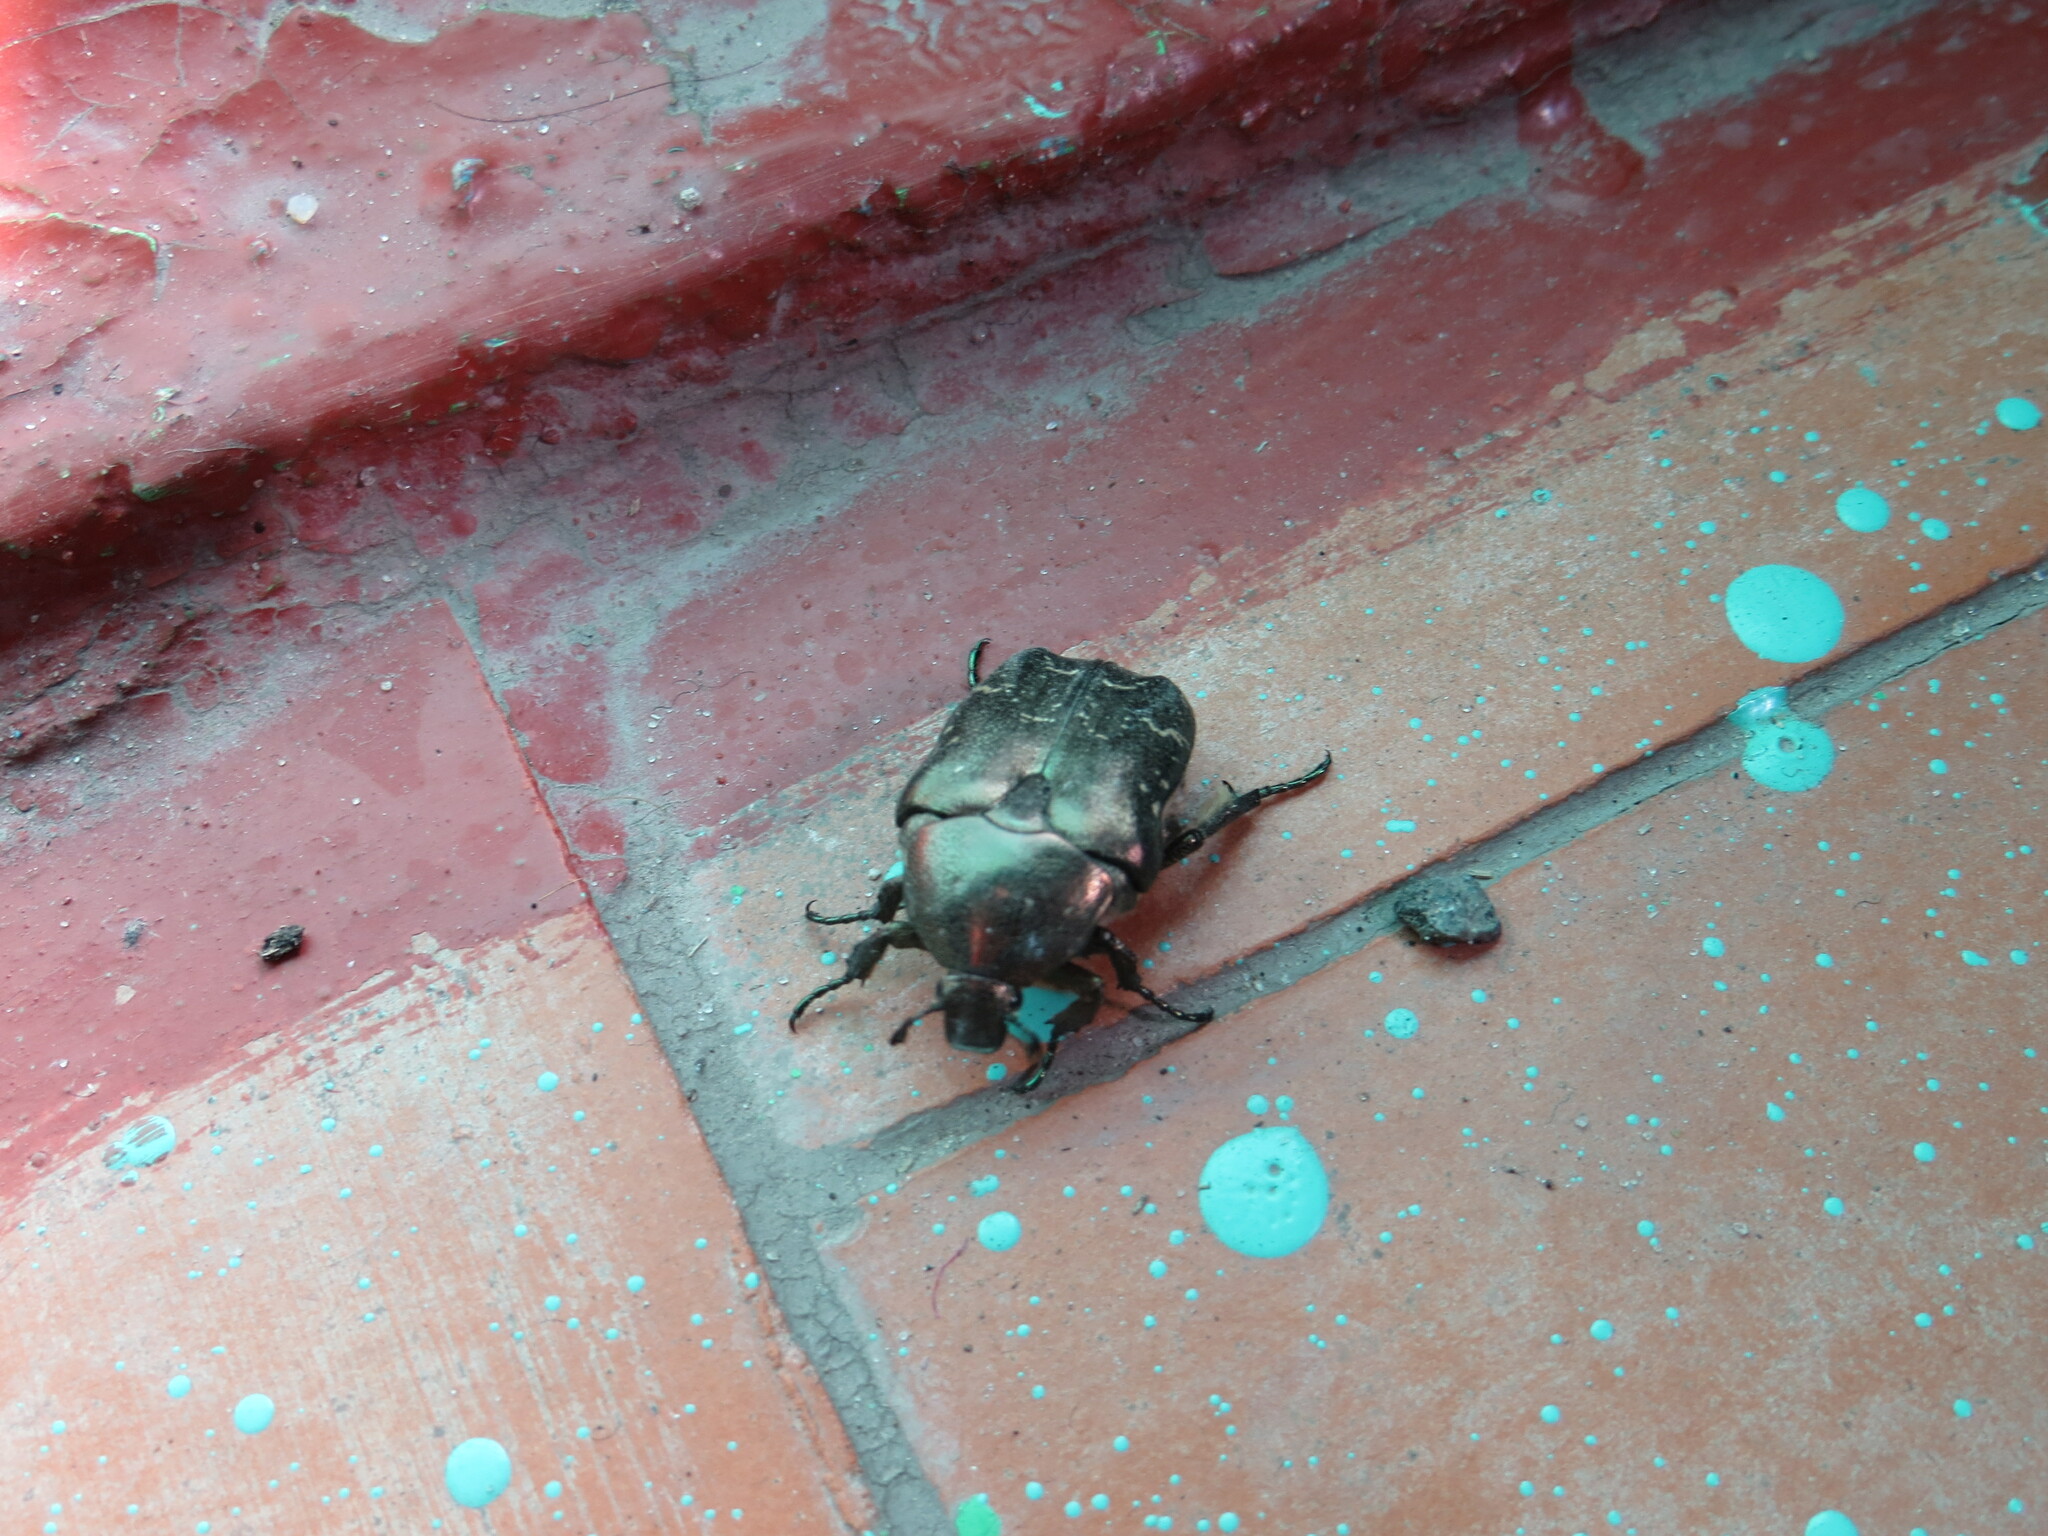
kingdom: Animalia
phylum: Arthropoda
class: Insecta
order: Coleoptera
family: Scarabaeidae
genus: Protaetia
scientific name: Protaetia cuprea
